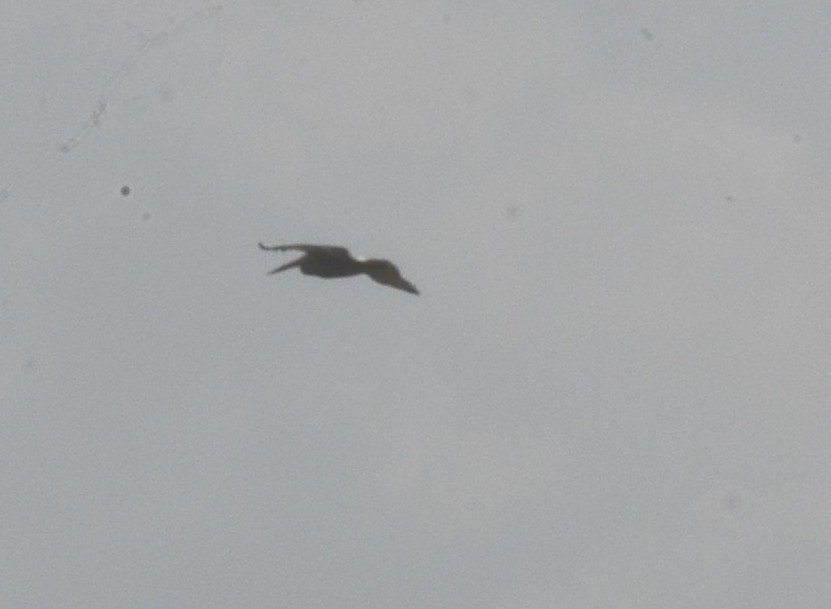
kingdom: Animalia
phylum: Chordata
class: Aves
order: Pelecaniformes
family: Pelecanidae
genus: Pelecanus
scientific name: Pelecanus philippensis
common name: Spot-billed pelican
